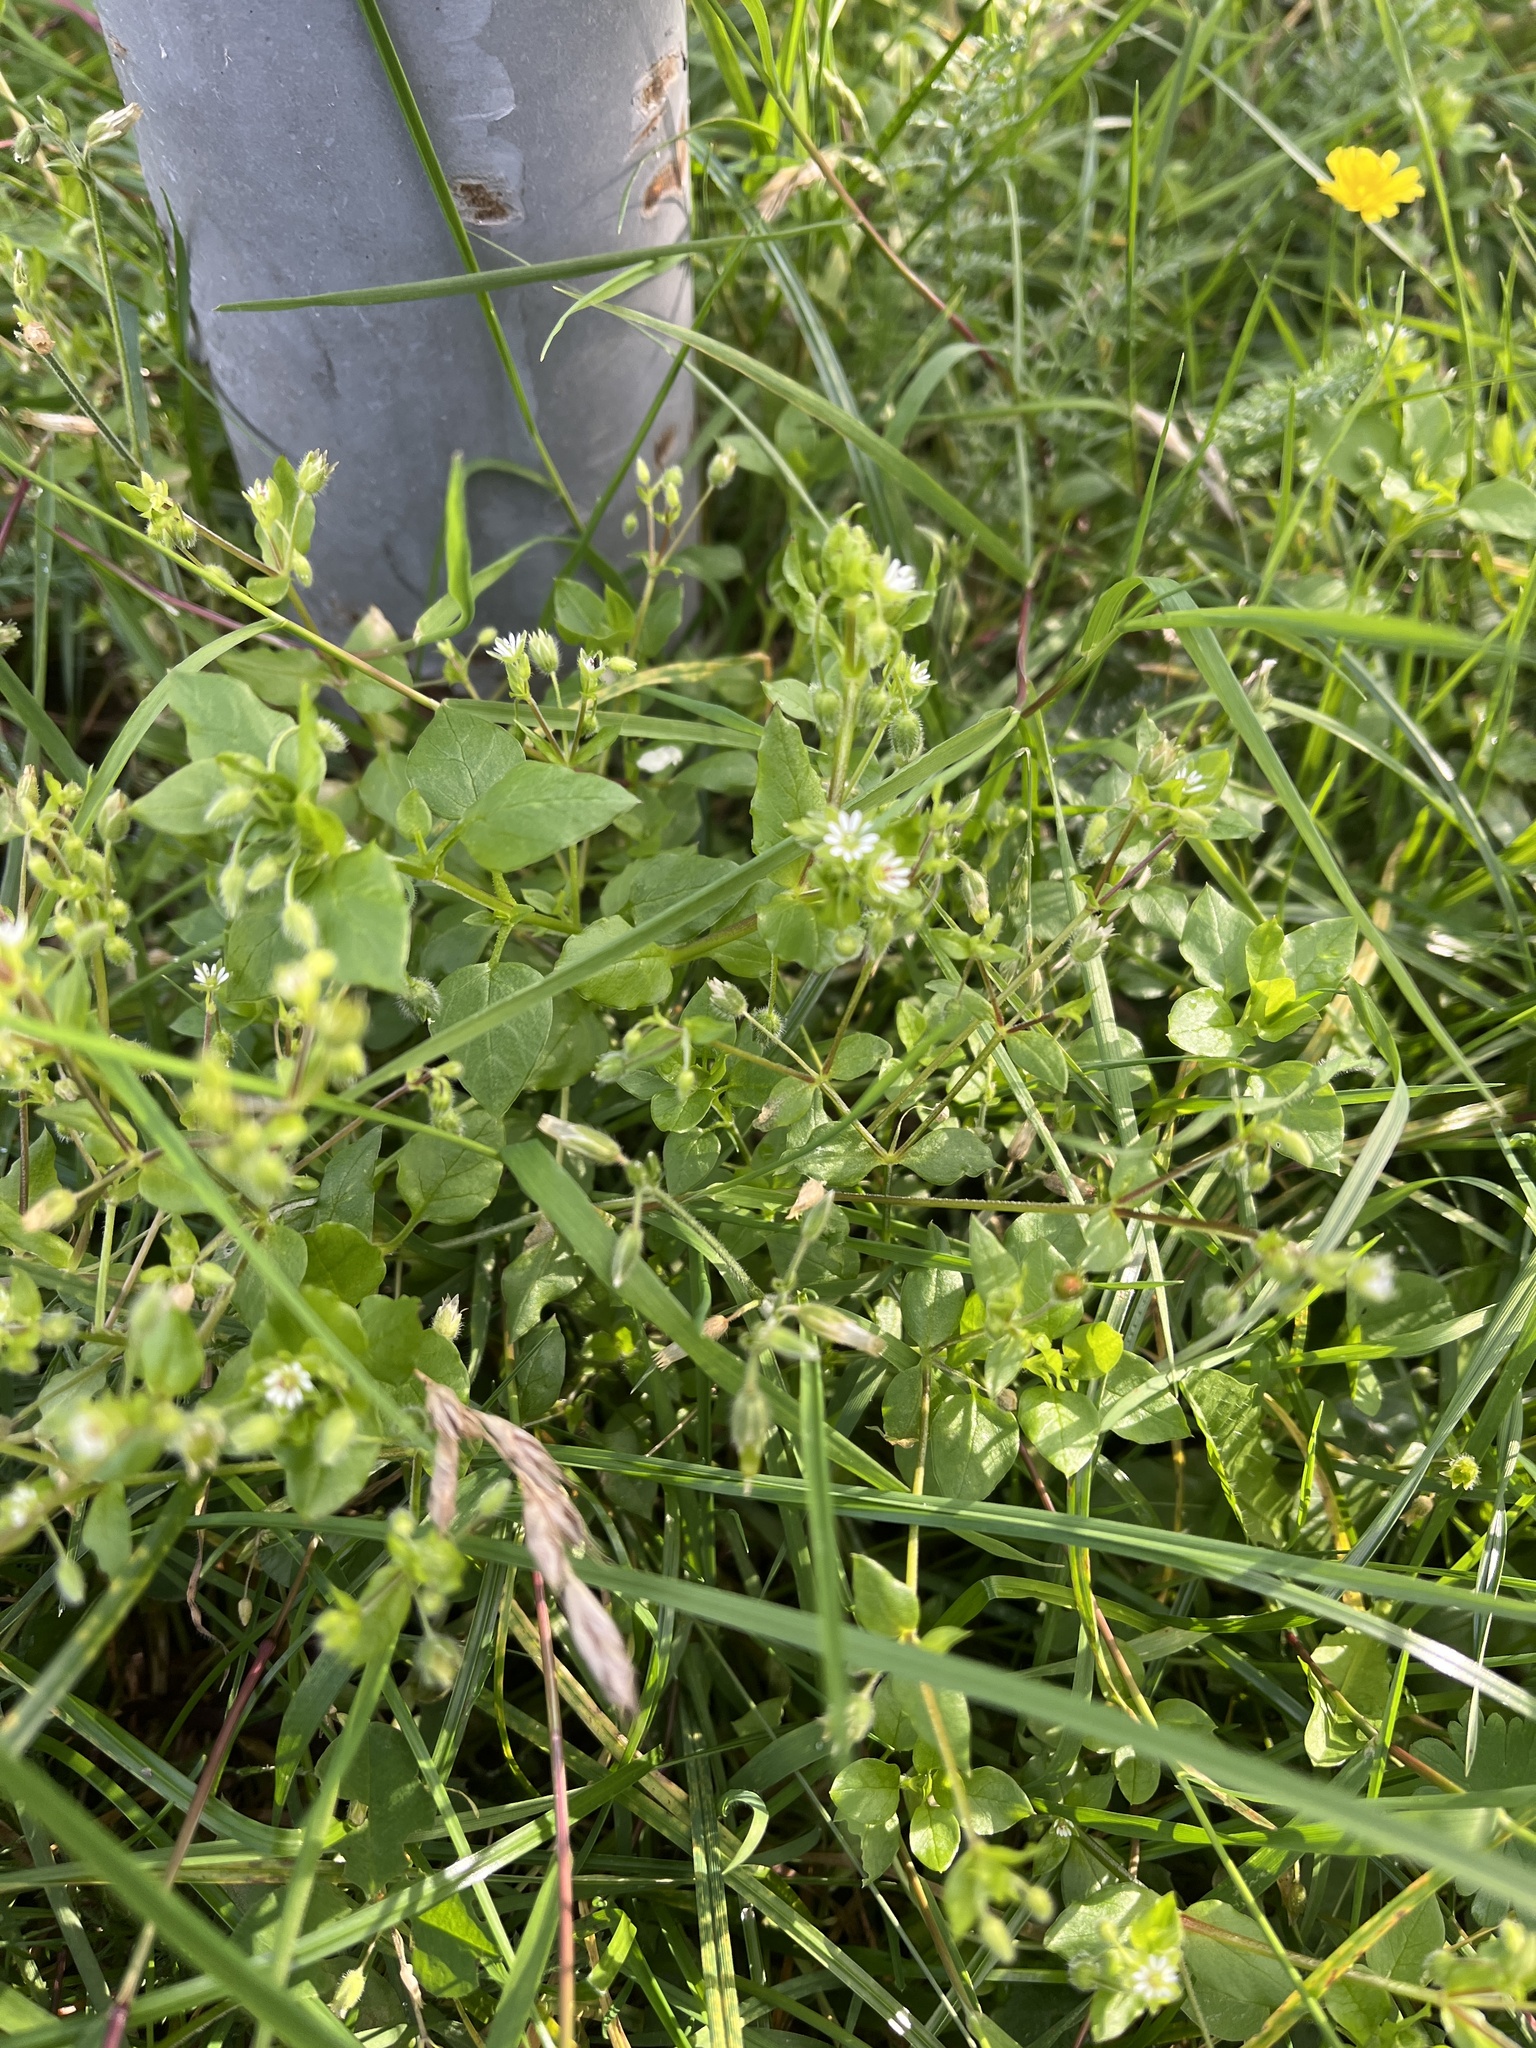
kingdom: Plantae
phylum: Tracheophyta
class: Magnoliopsida
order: Caryophyllales
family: Caryophyllaceae
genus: Stellaria
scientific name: Stellaria media
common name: Common chickweed
